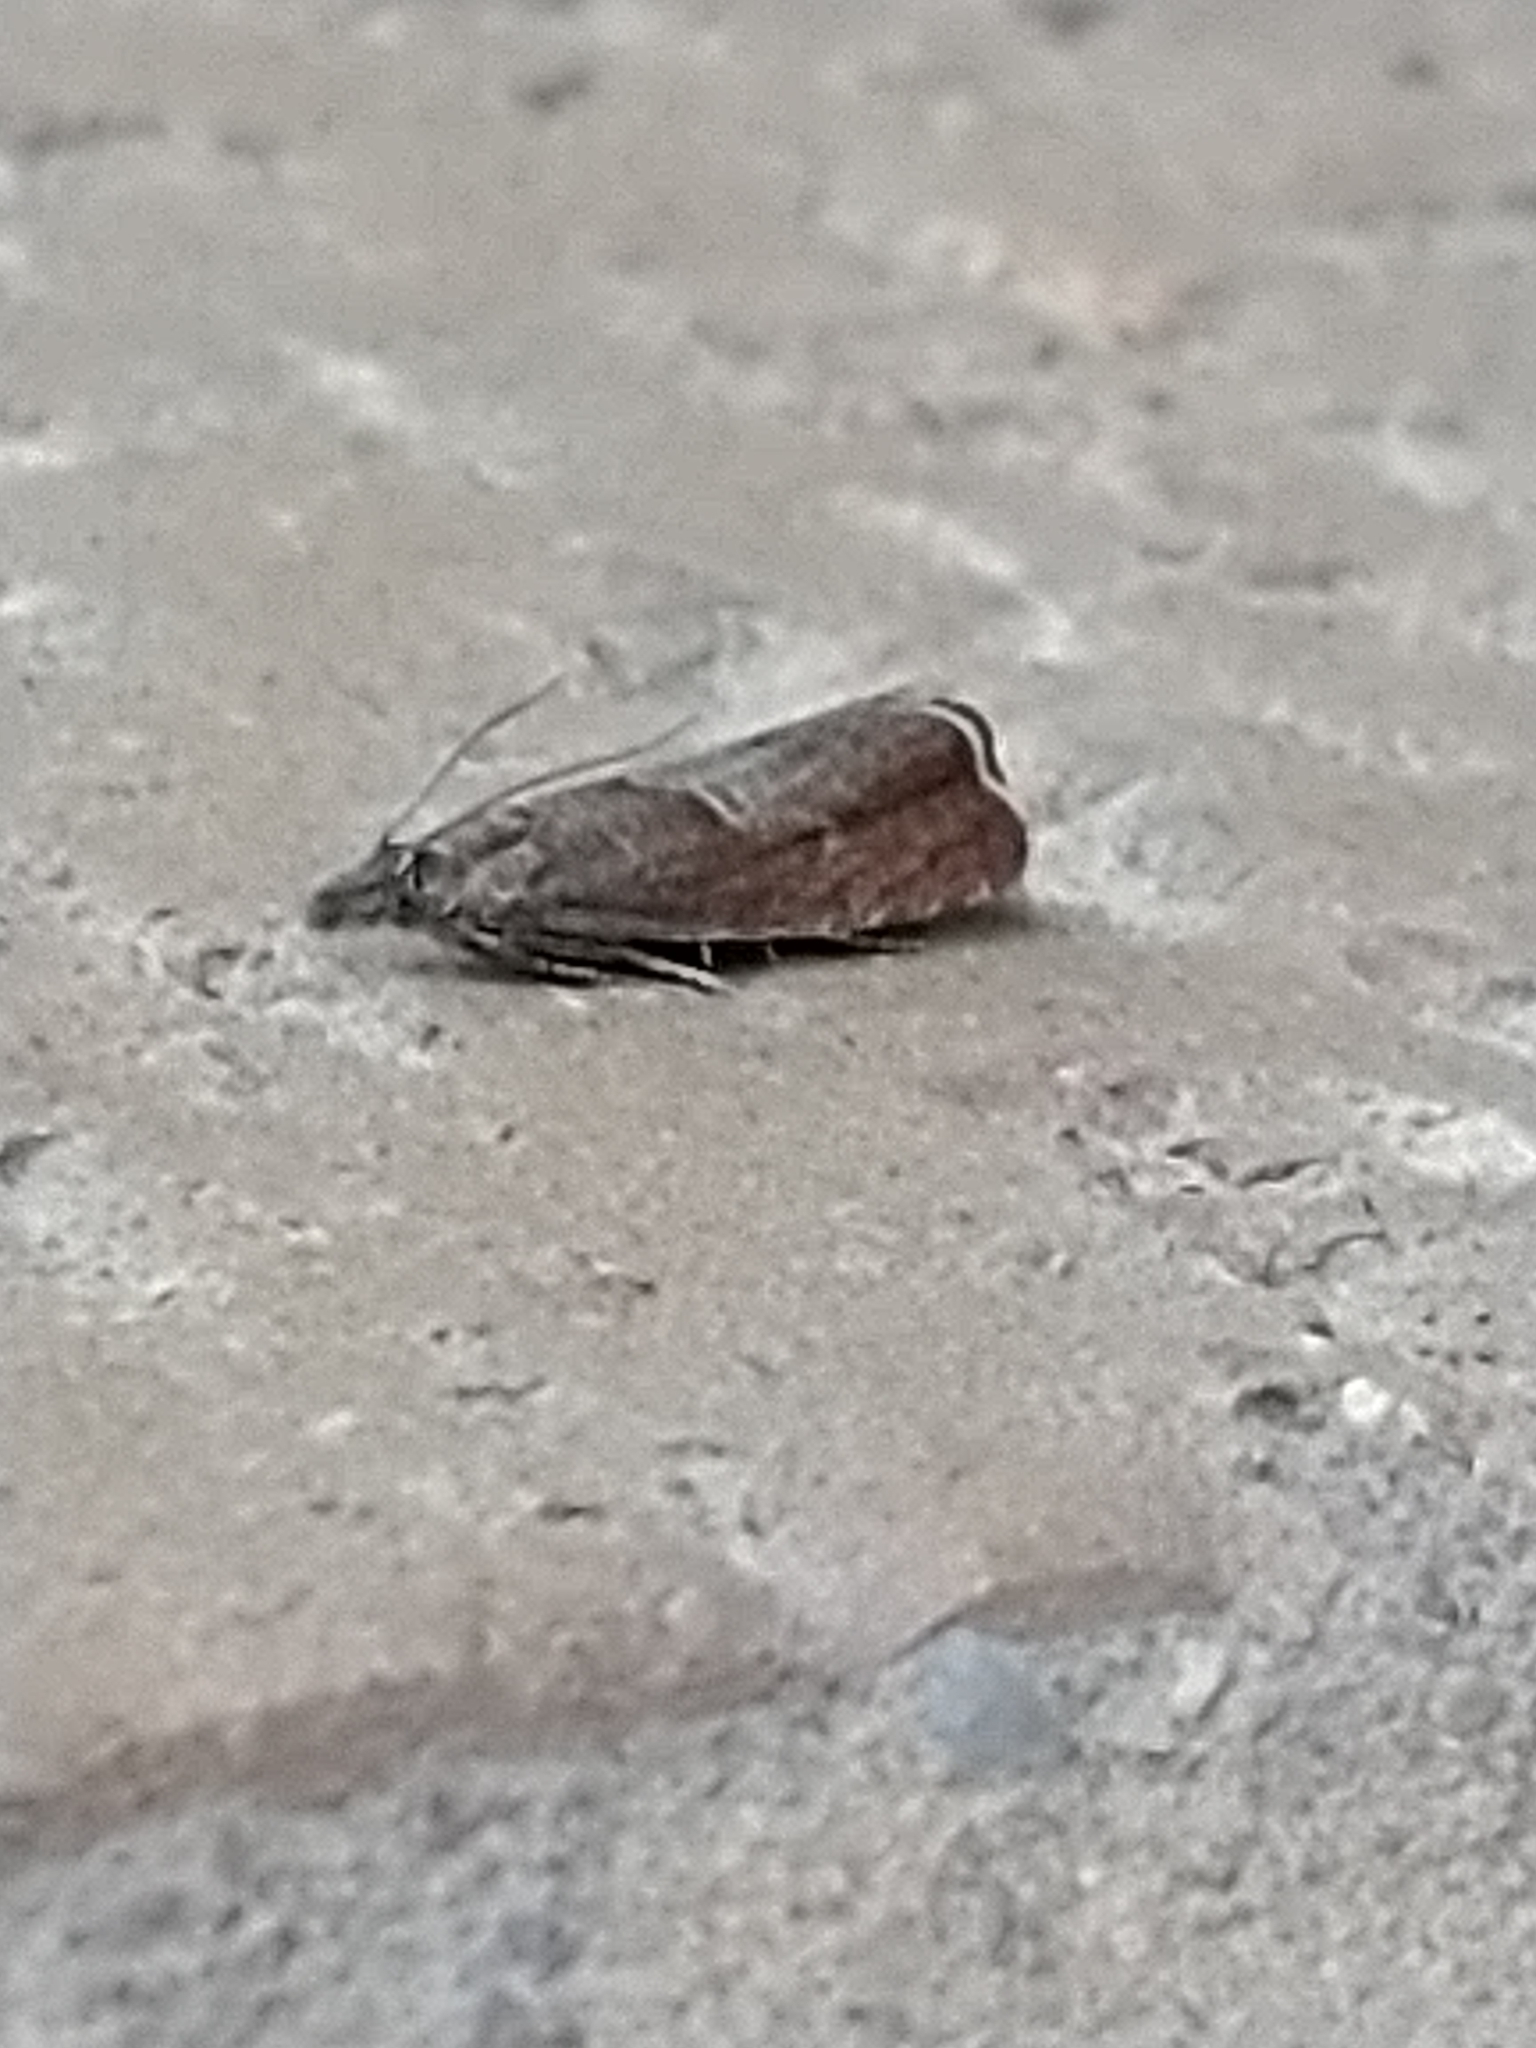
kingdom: Animalia
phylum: Arthropoda
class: Insecta
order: Lepidoptera
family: Tortricidae
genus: Dichrorampha
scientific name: Dichrorampha acuminatana
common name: Sharp-winged drill
